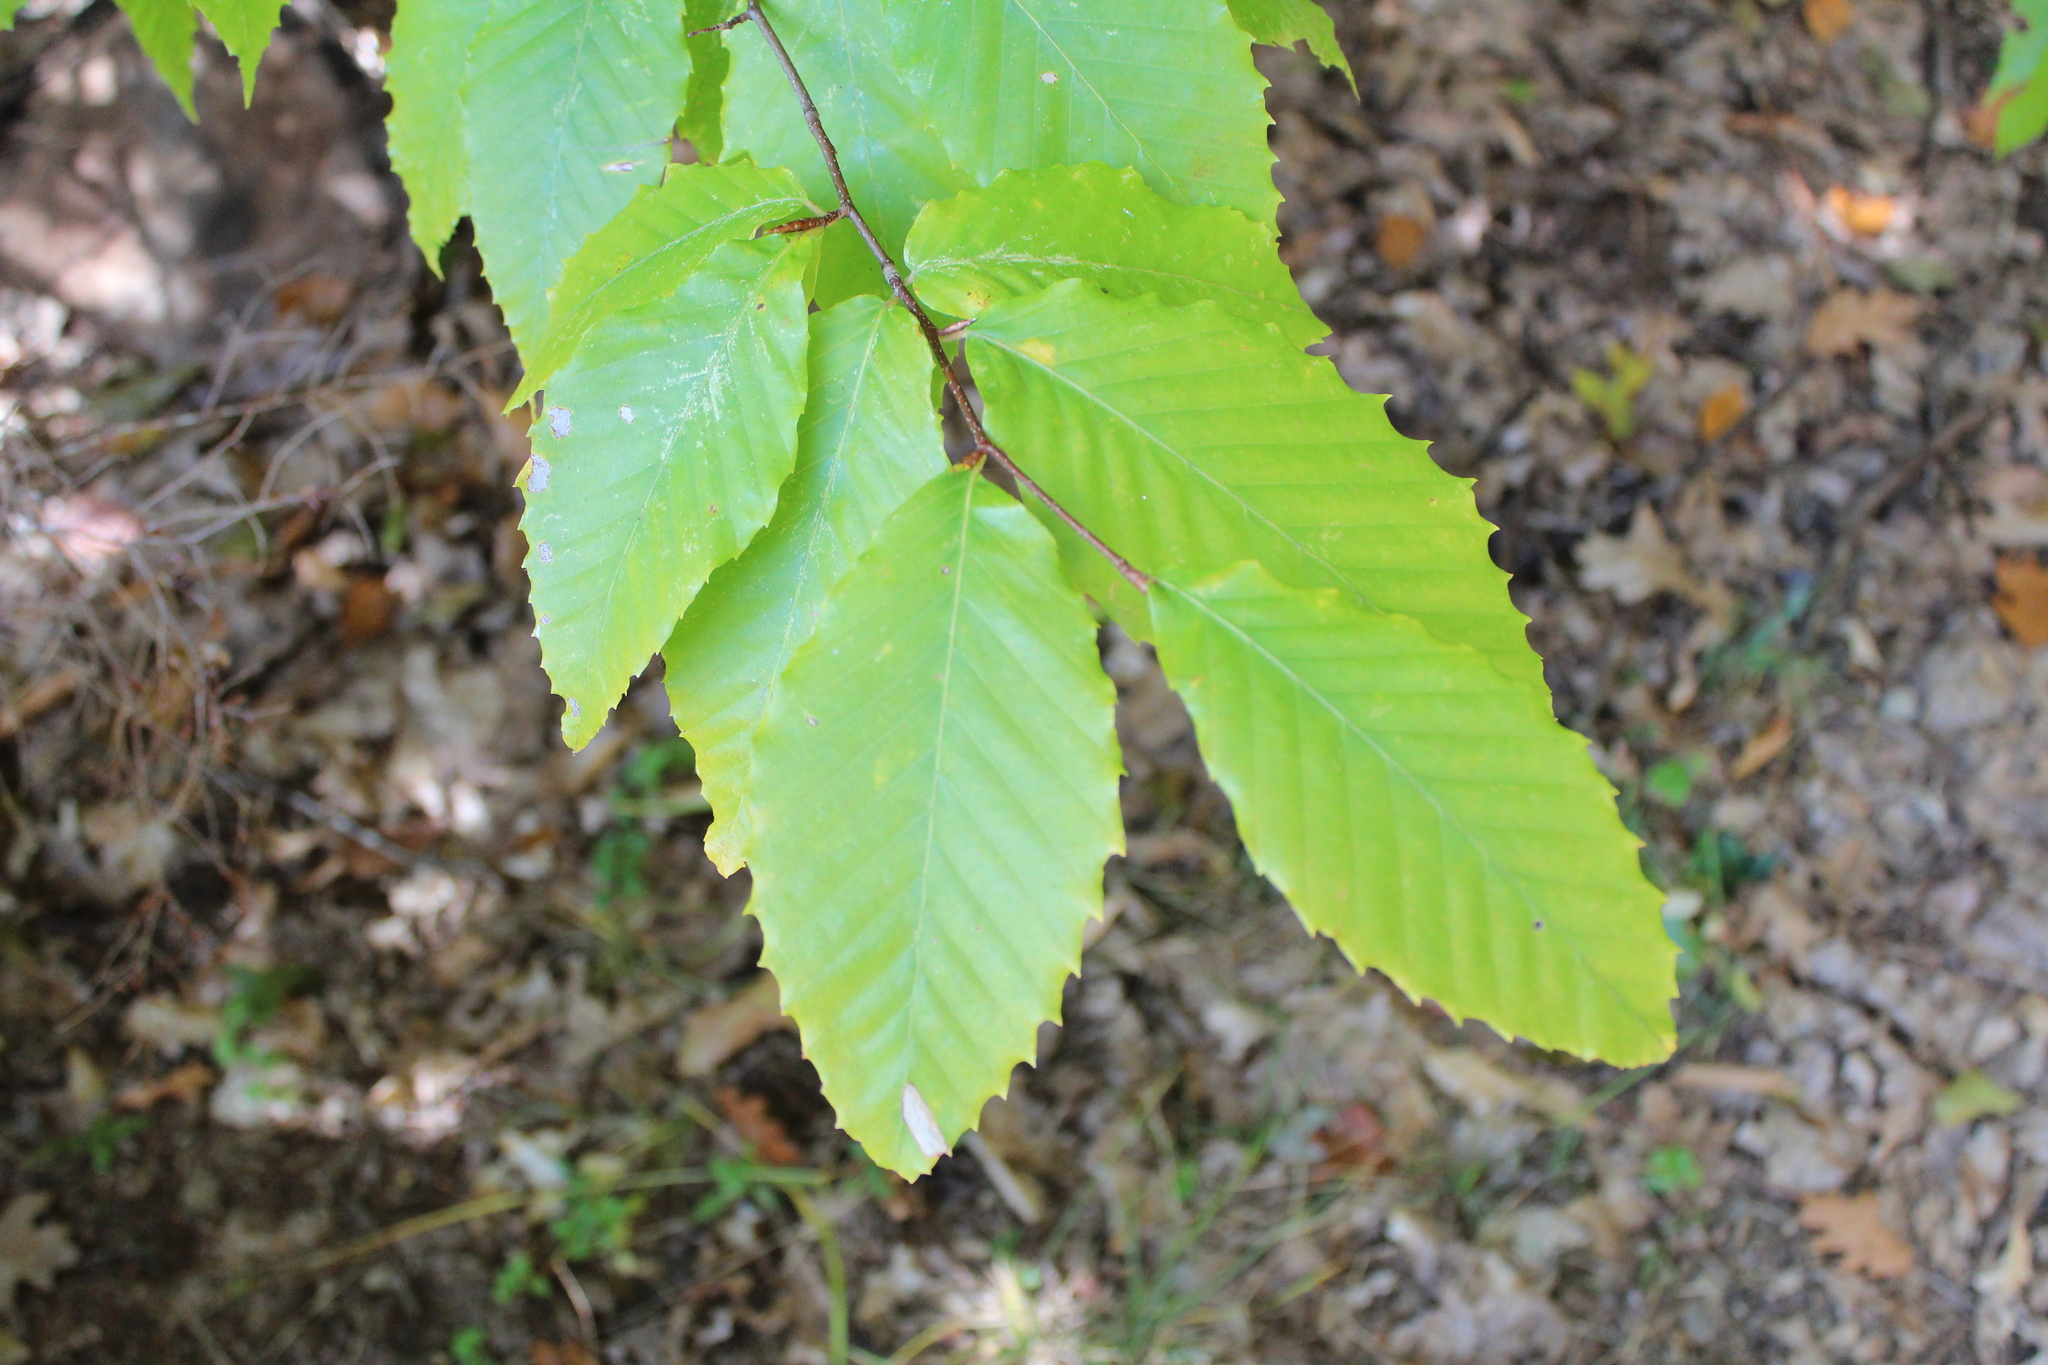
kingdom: Plantae
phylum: Tracheophyta
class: Magnoliopsida
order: Fagales
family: Fagaceae
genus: Fagus
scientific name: Fagus grandifolia
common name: American beech
